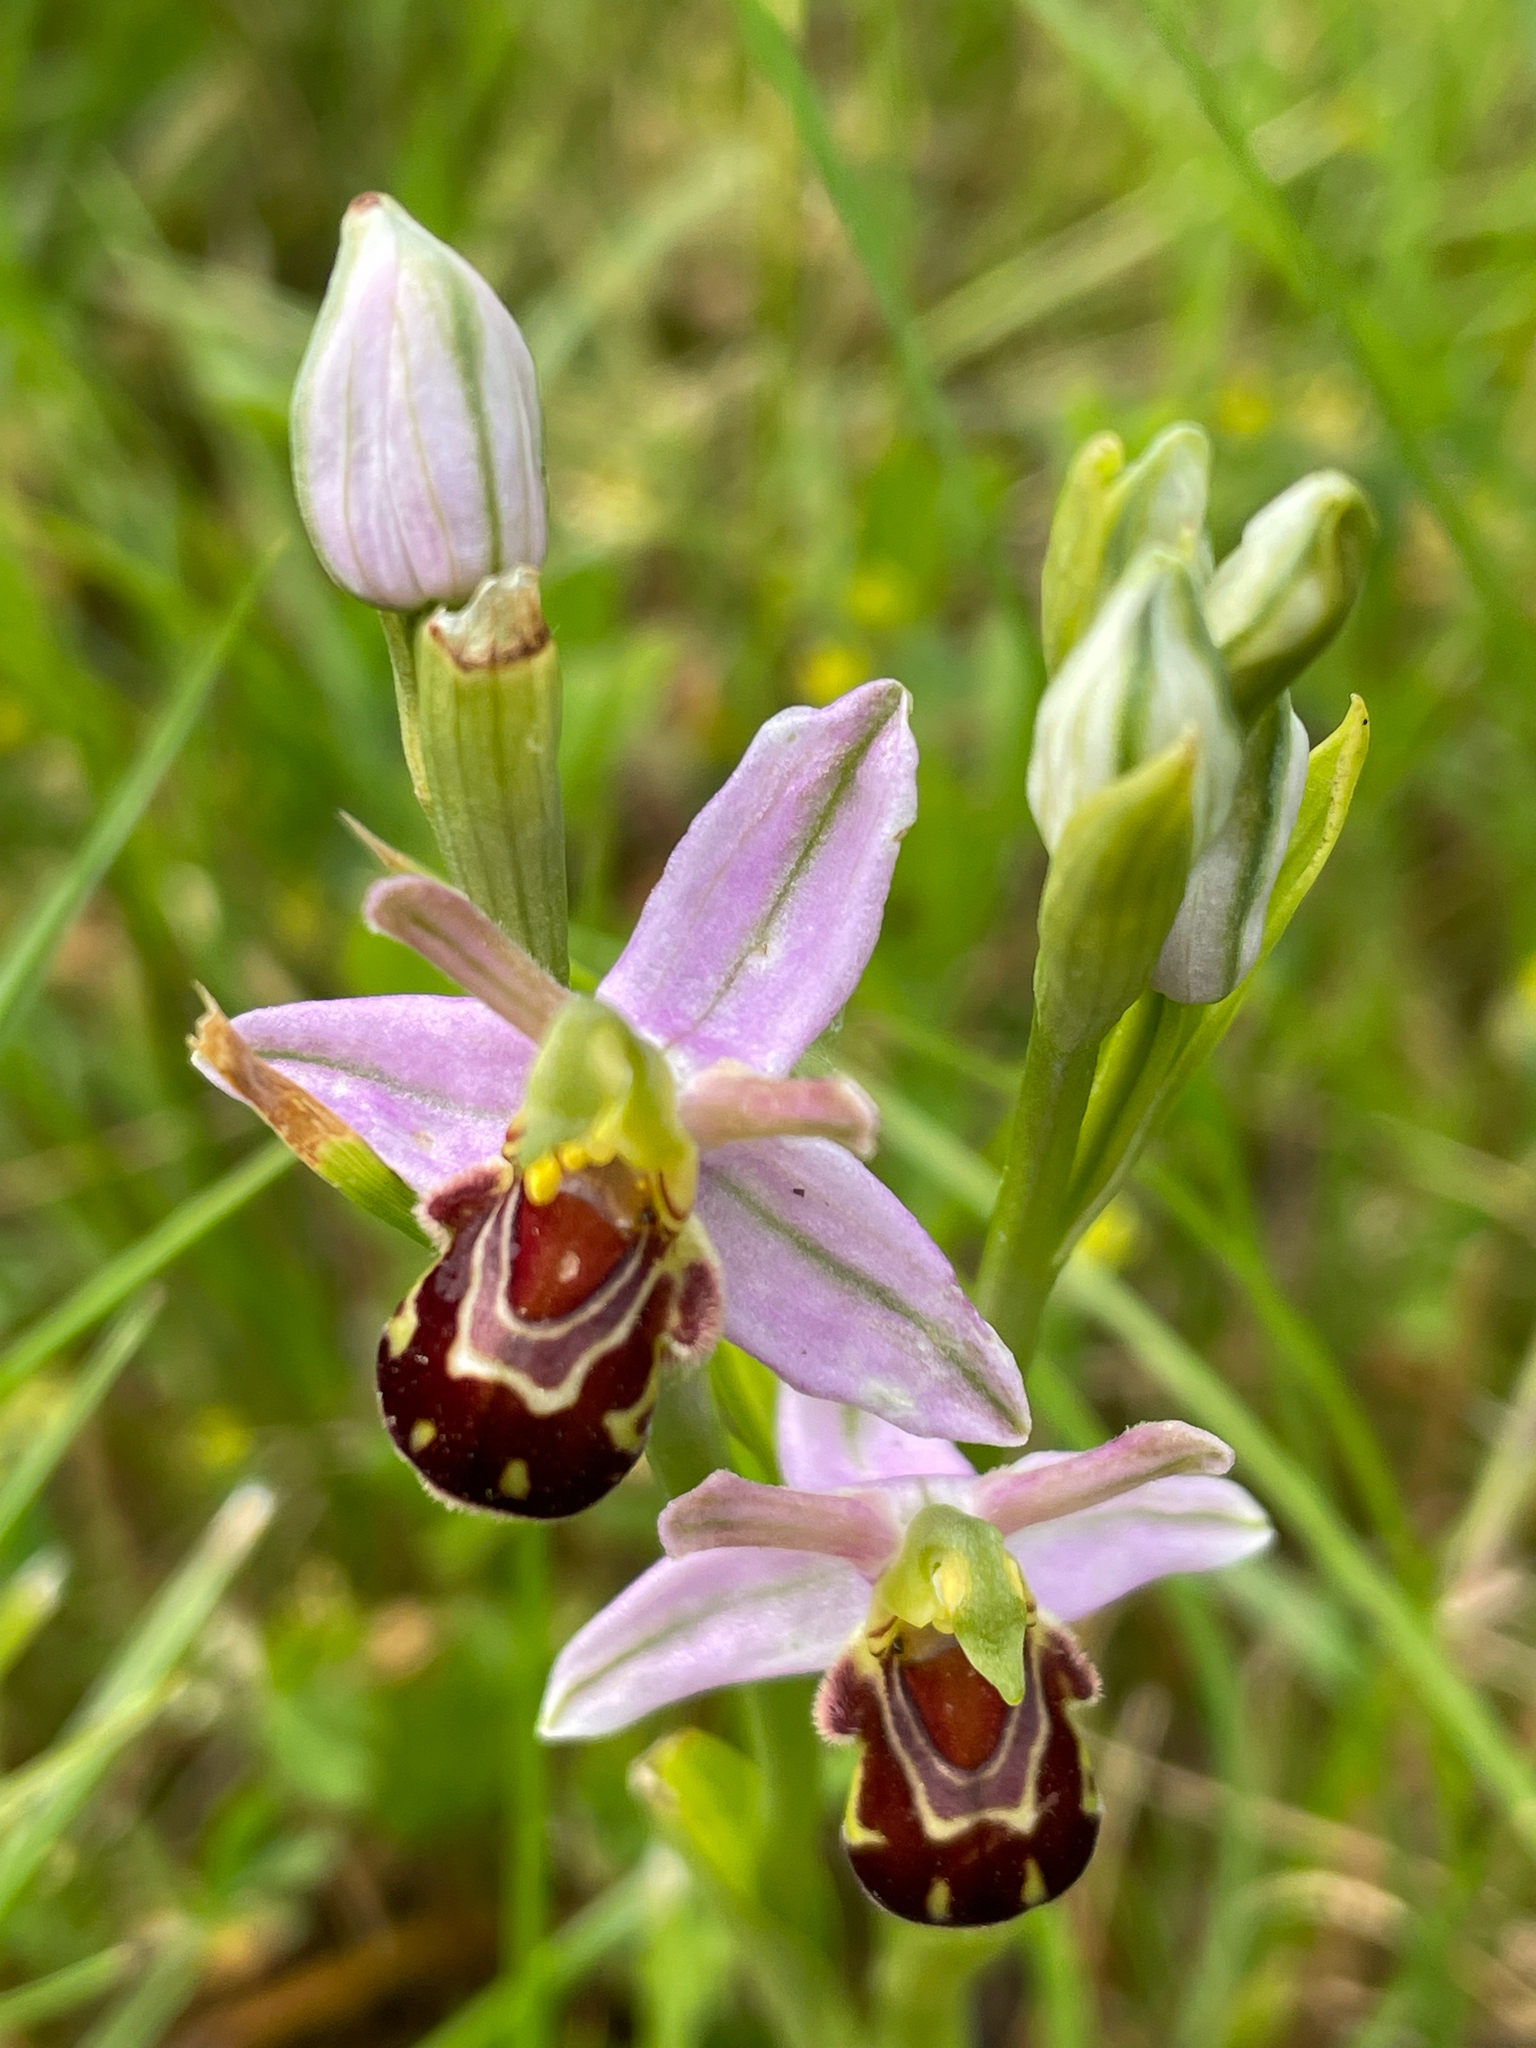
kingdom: Plantae
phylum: Tracheophyta
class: Liliopsida
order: Asparagales
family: Orchidaceae
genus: Ophrys
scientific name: Ophrys apifera
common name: Bee orchid
